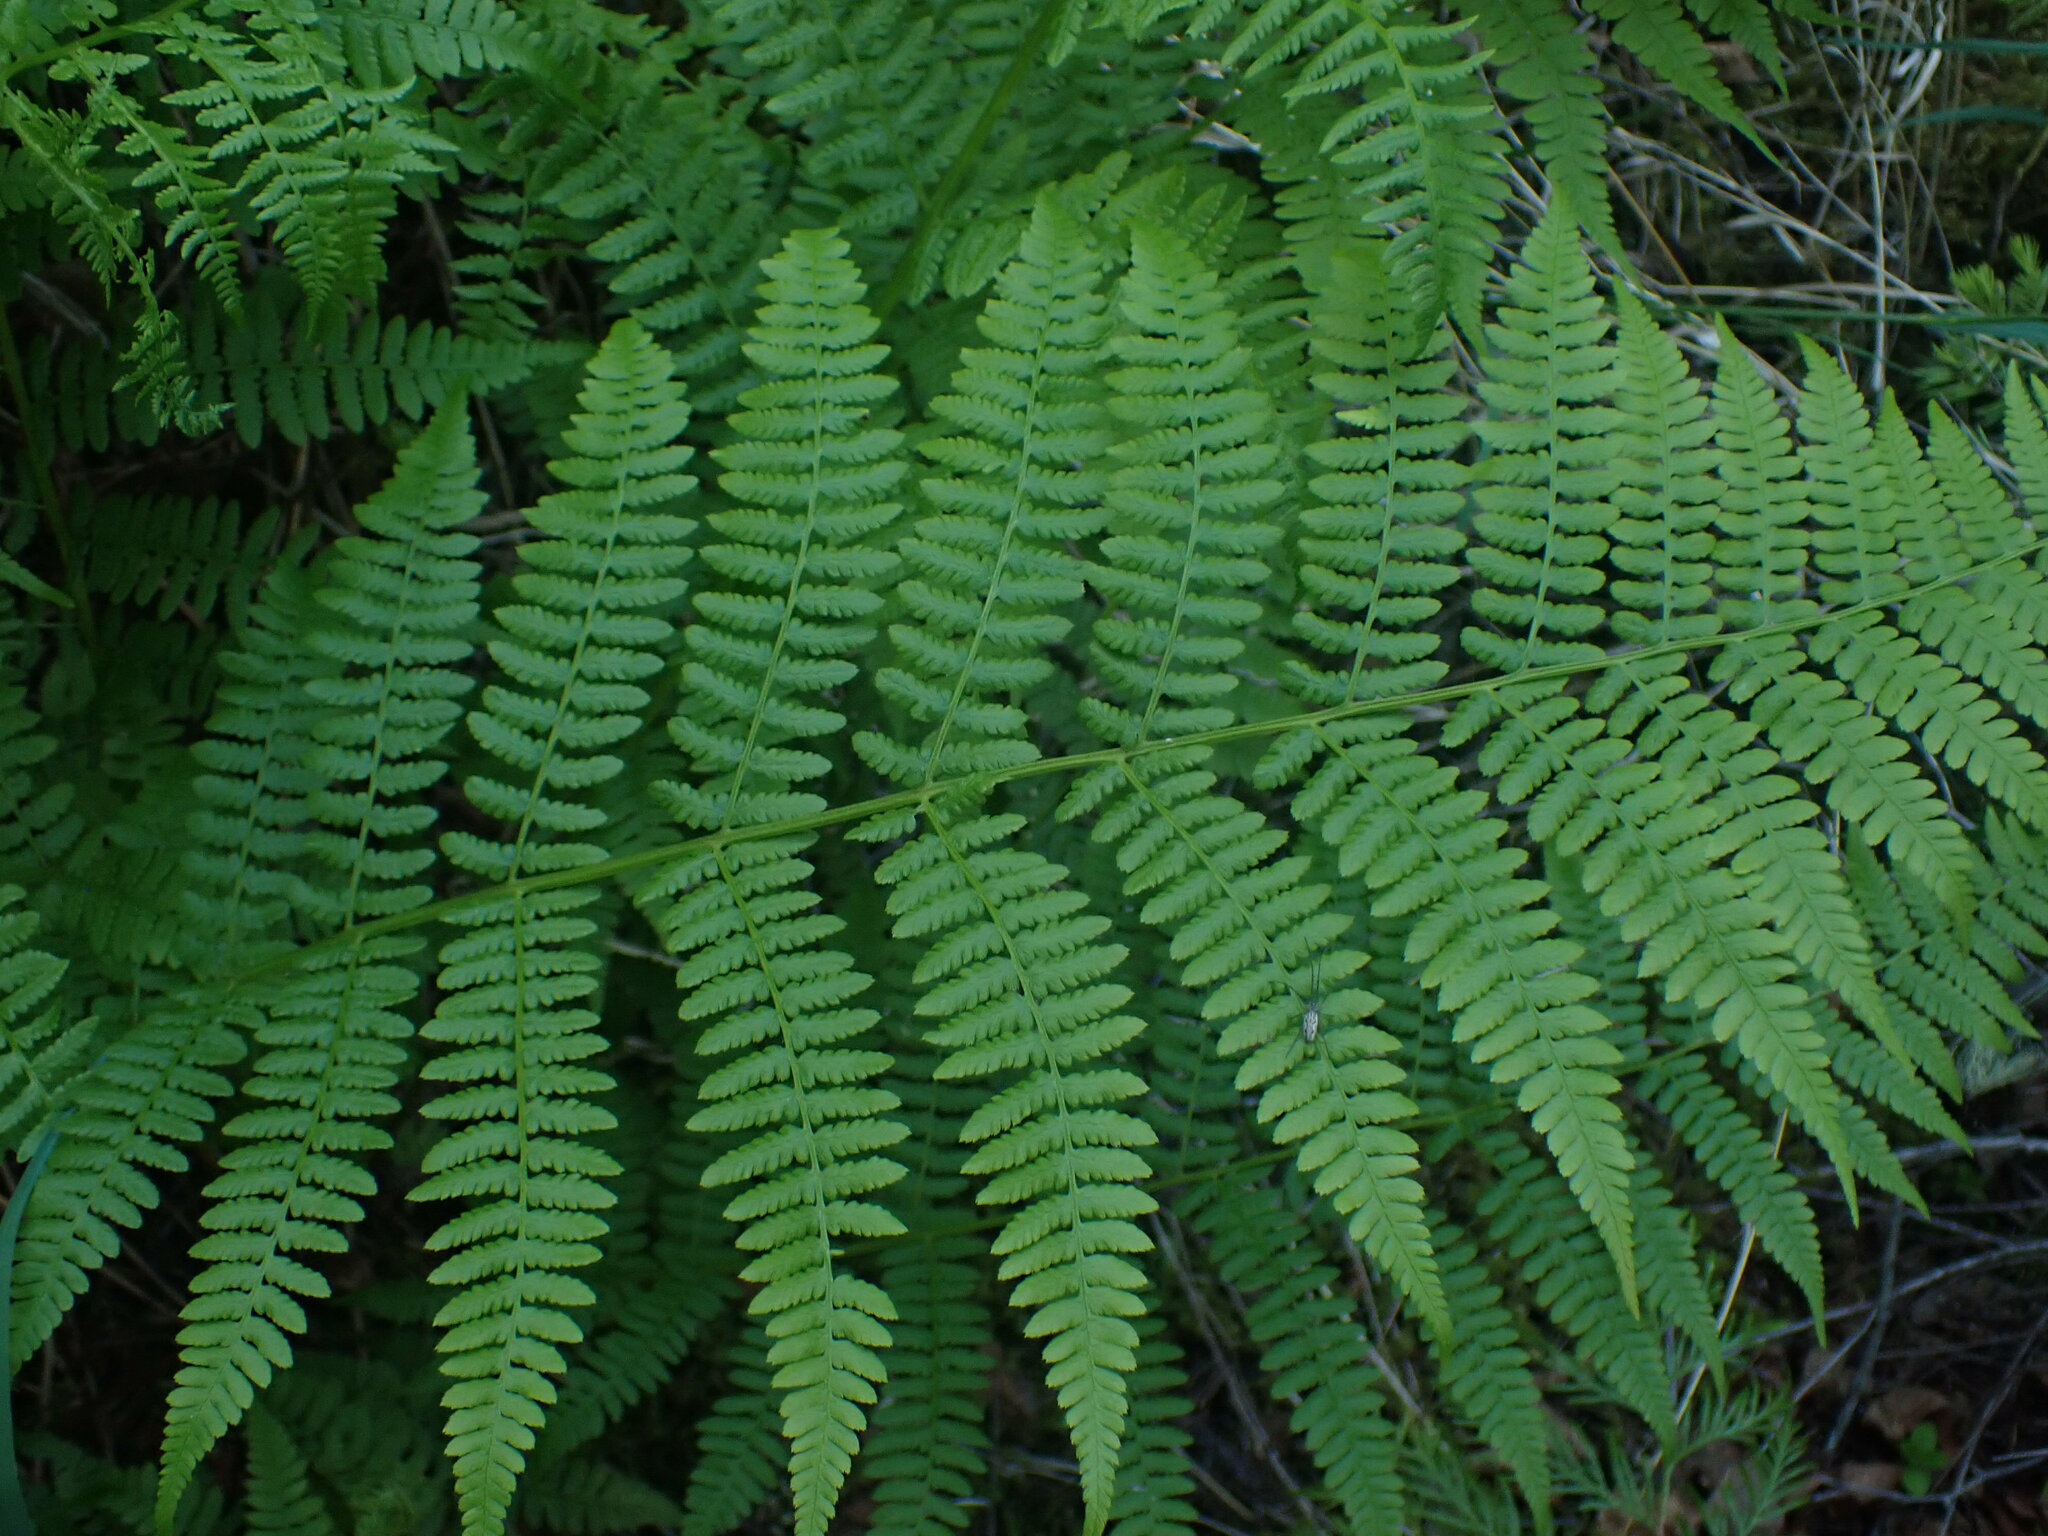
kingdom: Plantae
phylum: Tracheophyta
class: Polypodiopsida
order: Polypodiales
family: Athyriaceae
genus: Athyrium
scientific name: Athyrium filix-femina
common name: Lady fern
